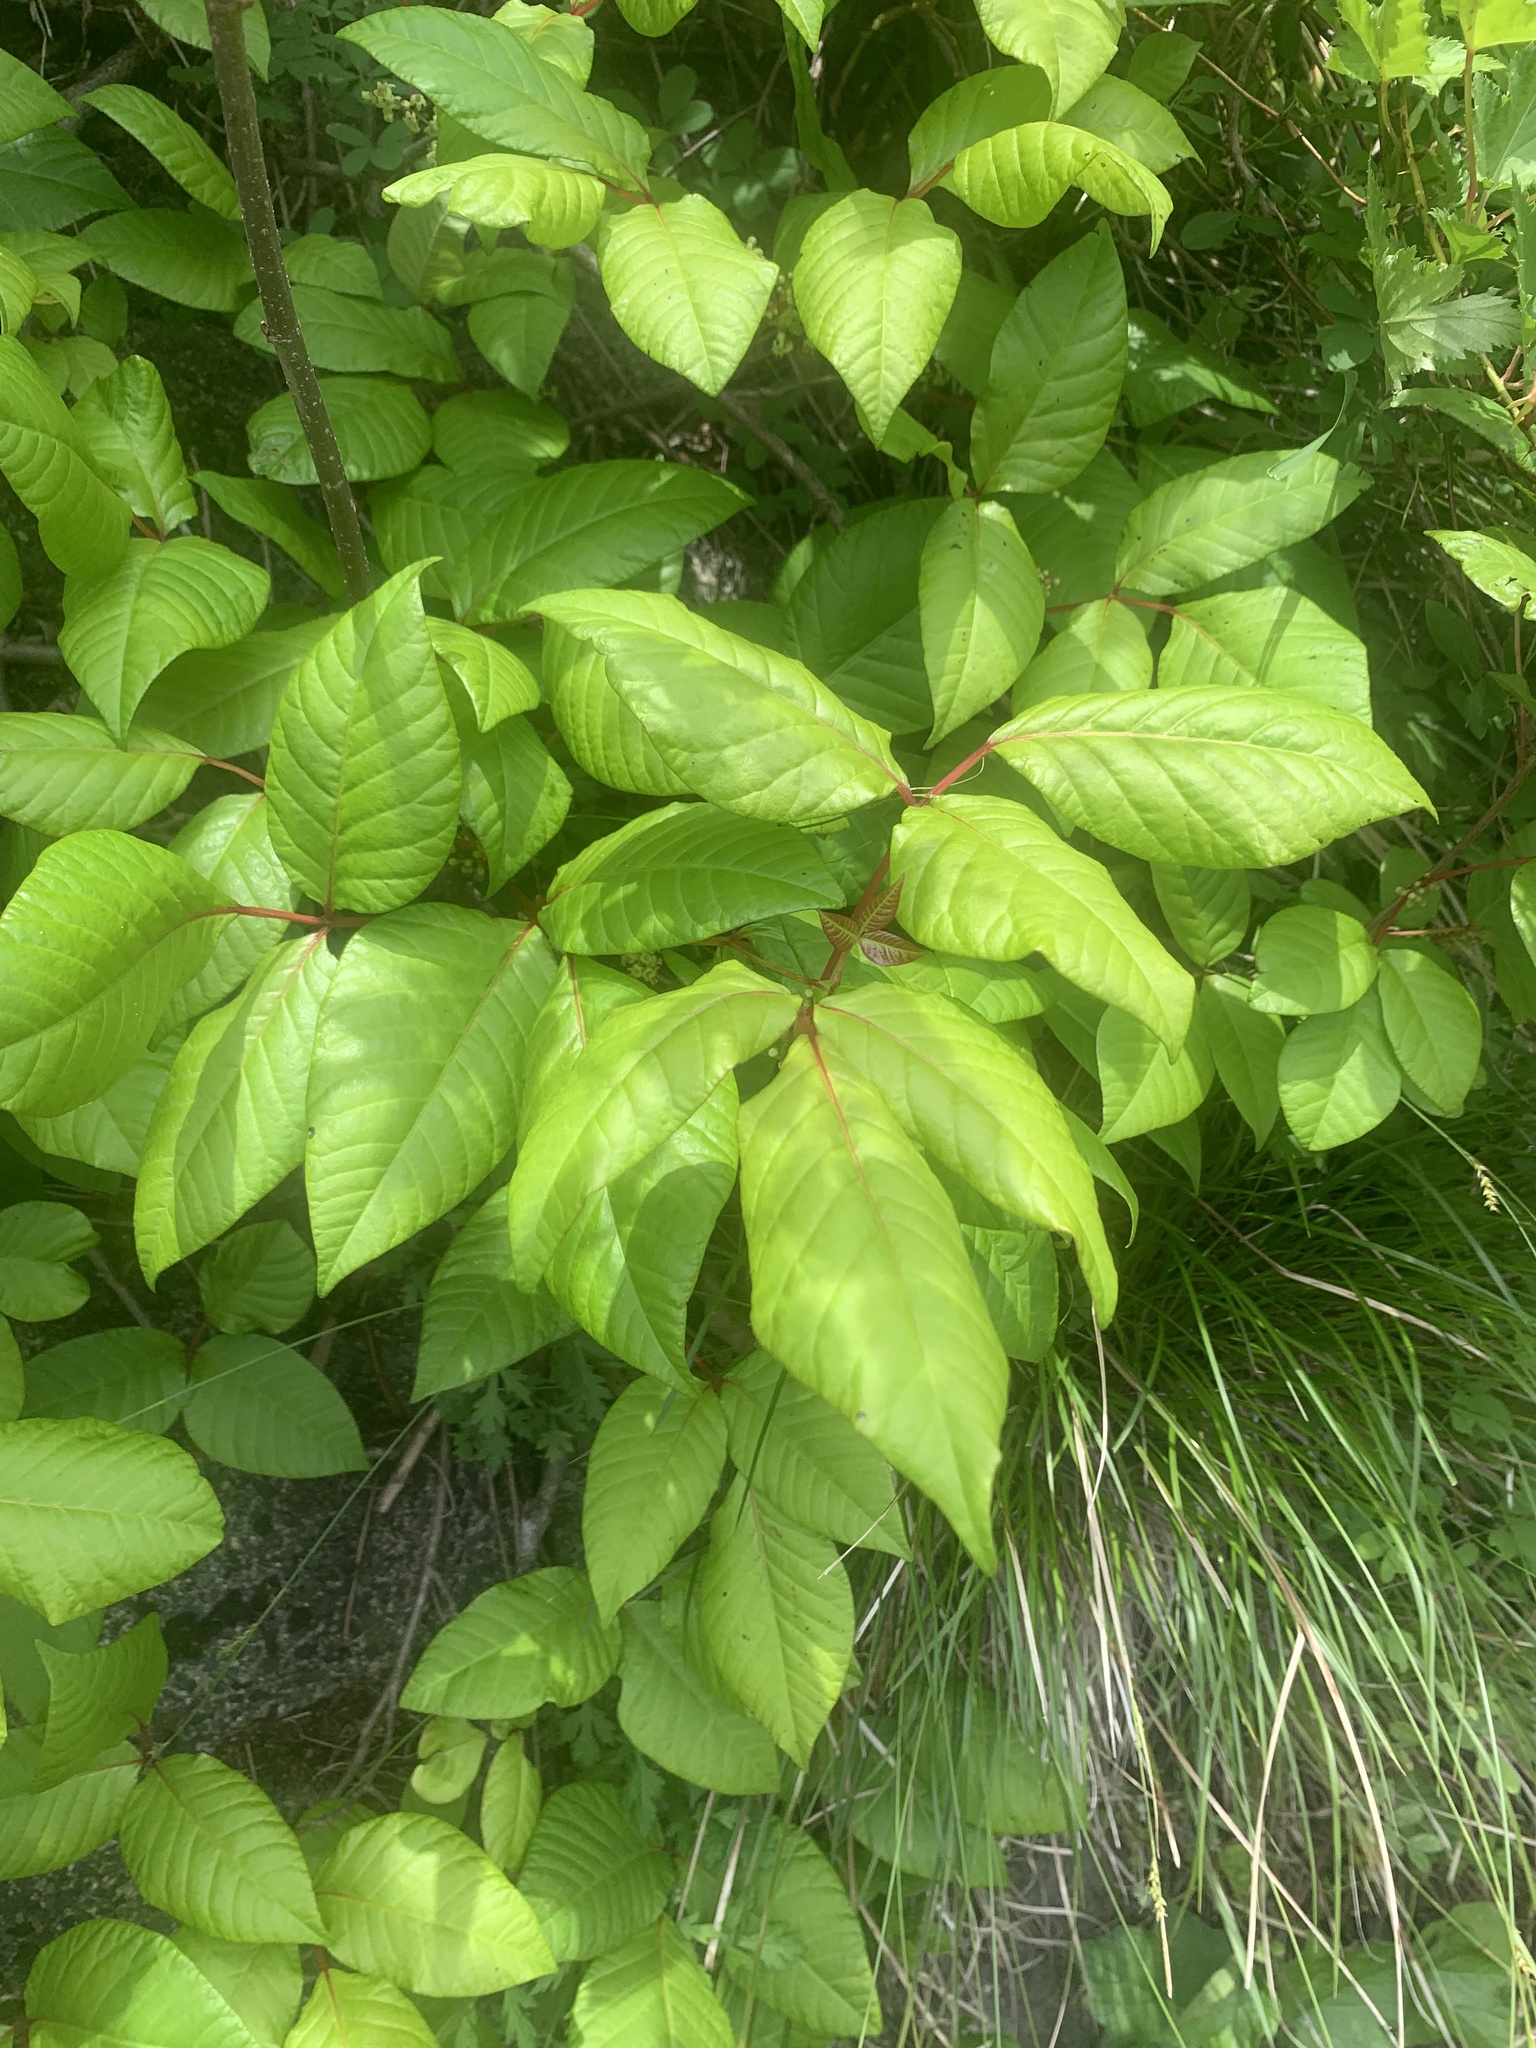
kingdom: Plantae
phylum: Tracheophyta
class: Magnoliopsida
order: Sapindales
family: Anacardiaceae
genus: Toxicodendron
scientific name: Toxicodendron orientale
